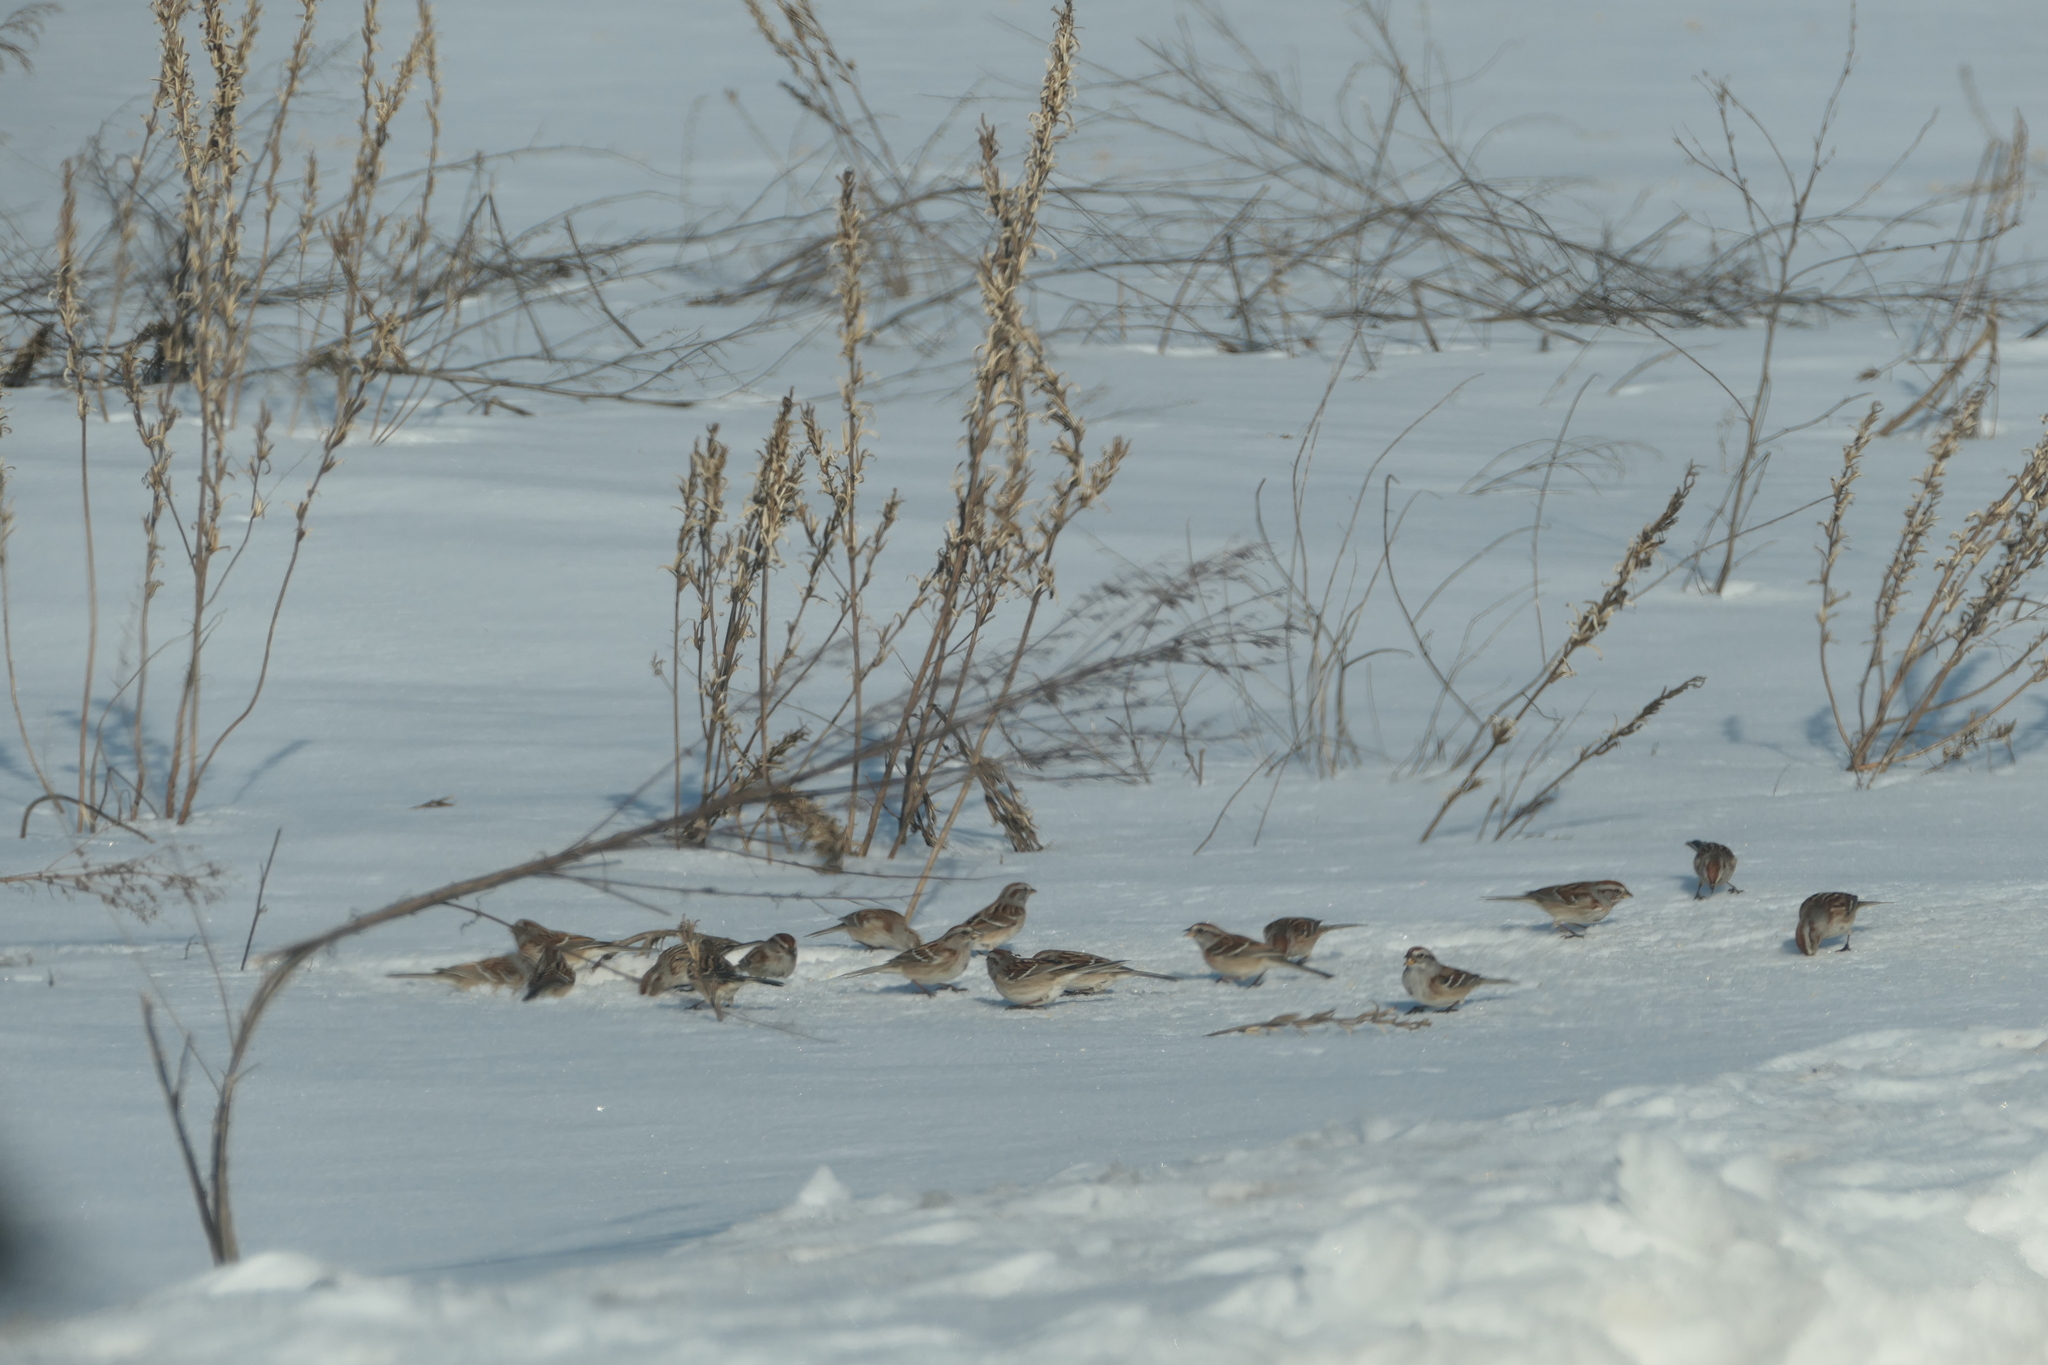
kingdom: Animalia
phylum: Chordata
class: Aves
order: Passeriformes
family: Passerellidae
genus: Spizelloides
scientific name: Spizelloides arborea
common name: American tree sparrow
